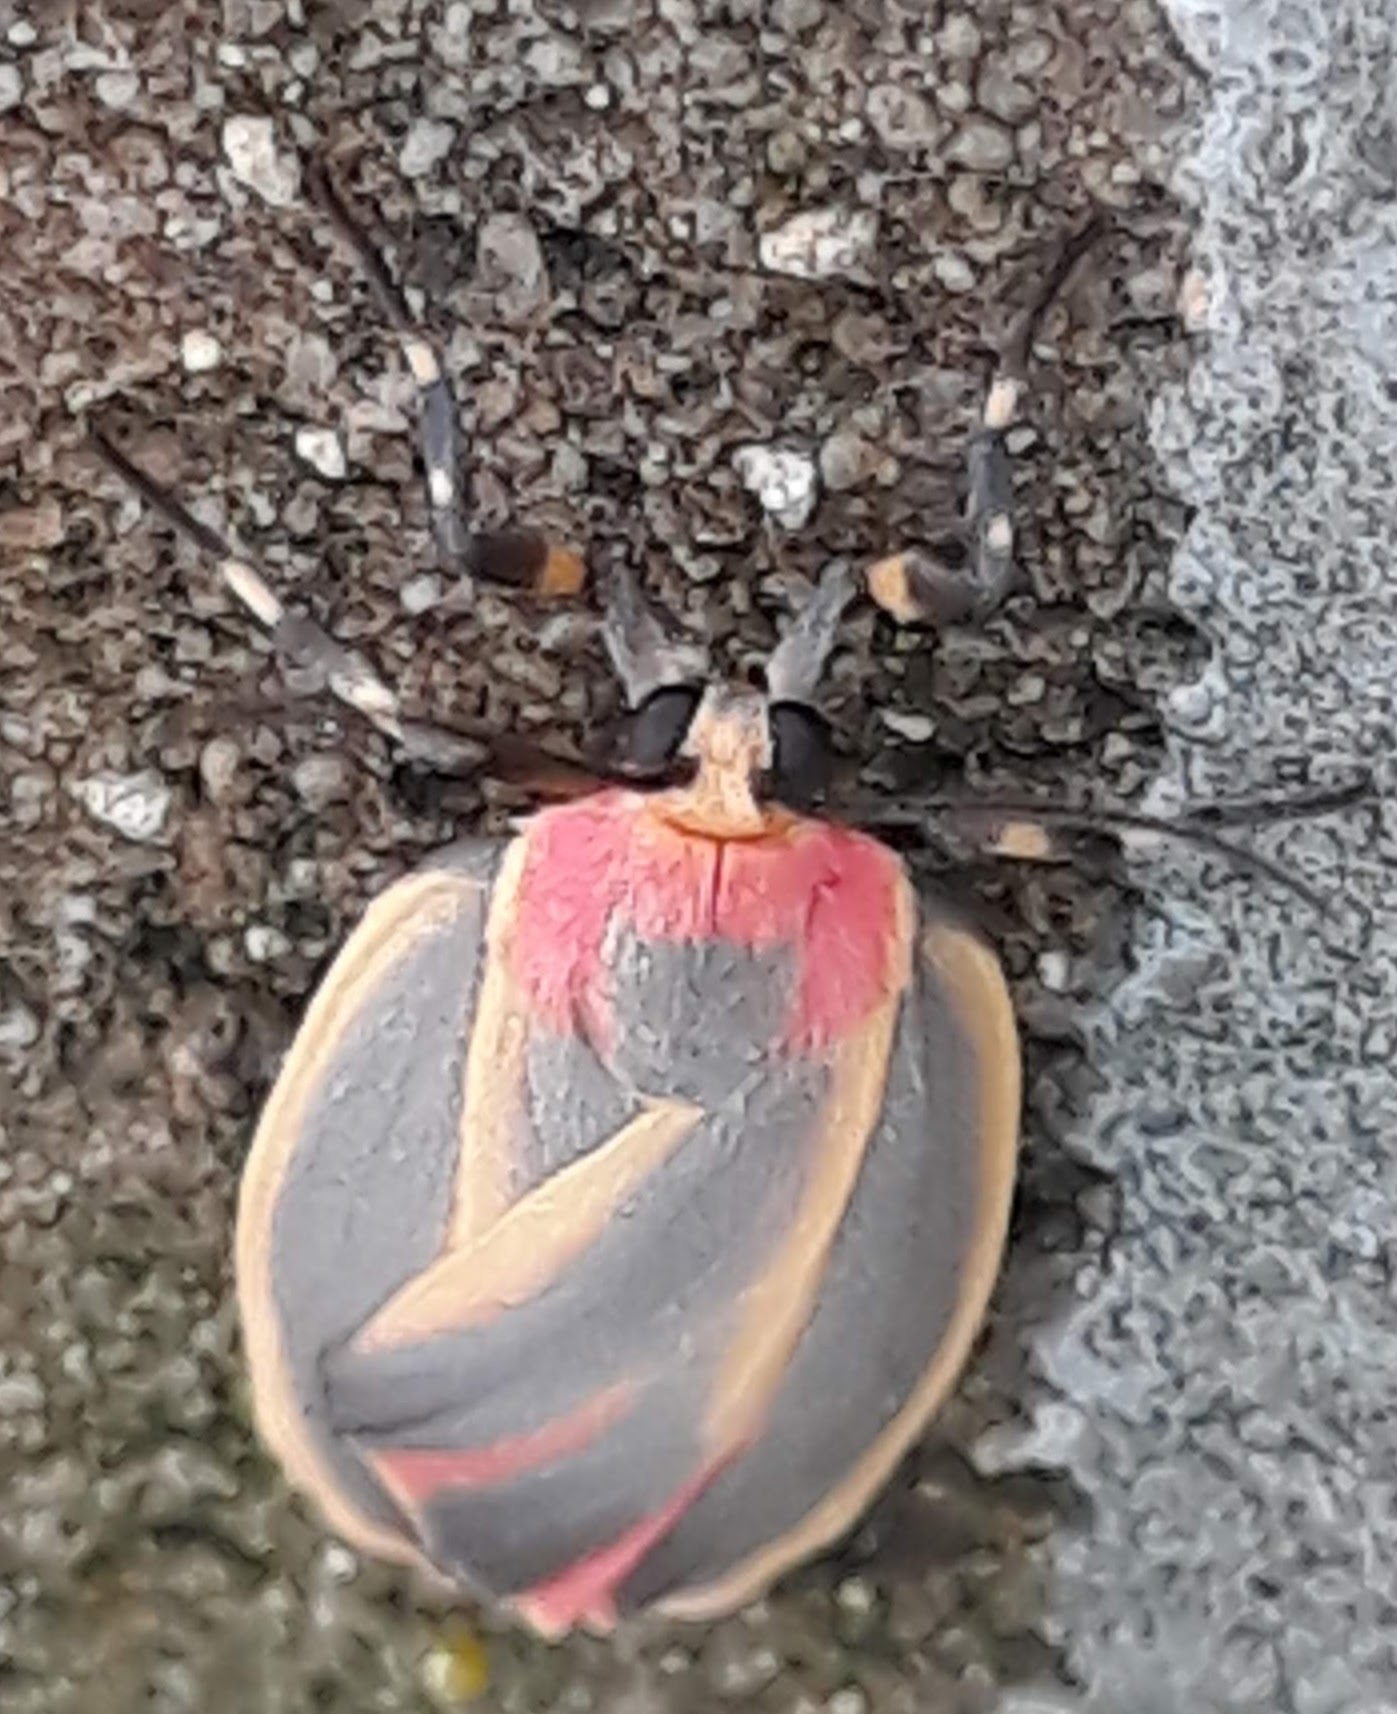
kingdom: Animalia
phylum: Arthropoda
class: Insecta
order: Lepidoptera
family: Erebidae
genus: Hypoprepia
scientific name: Hypoprepia fucosa
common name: Painted lichen moth
